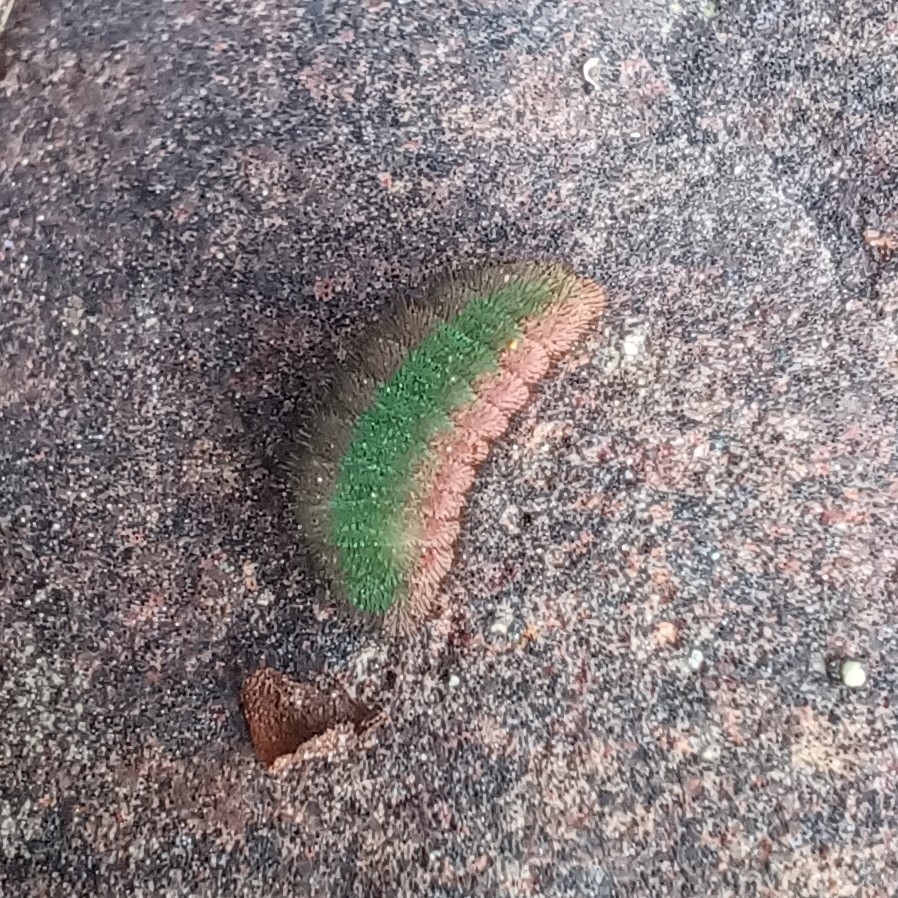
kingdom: Animalia
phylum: Arthropoda
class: Insecta
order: Lepidoptera
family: Lycaenidae
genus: Lycaena
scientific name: Lycaena phlaeas
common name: Small copper
